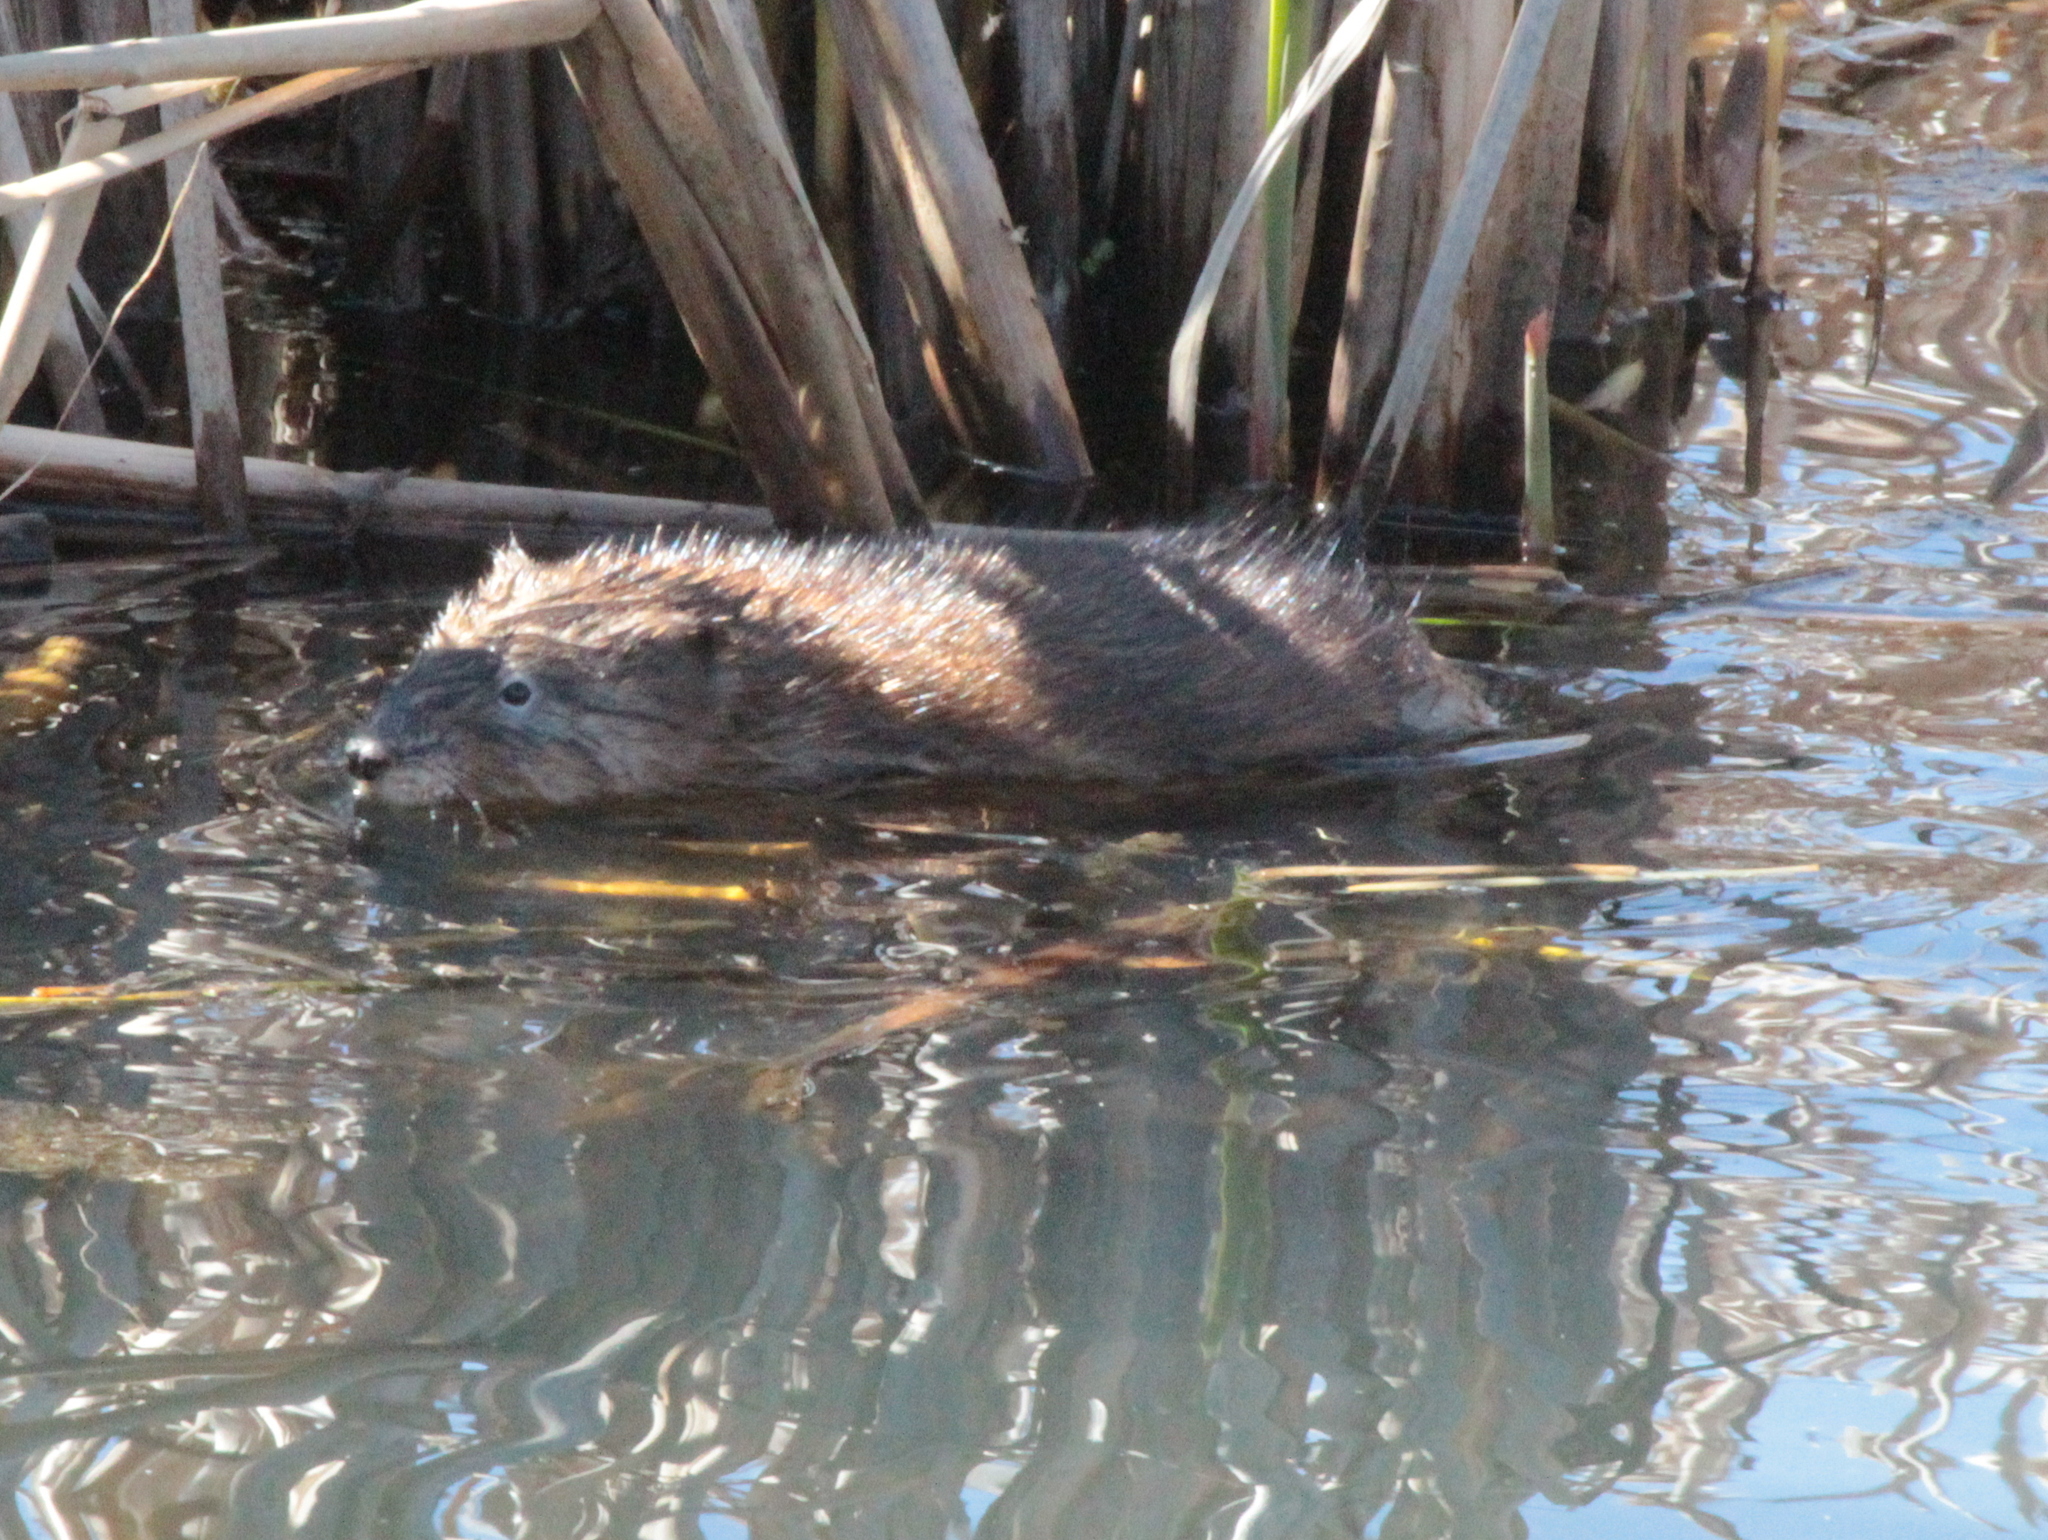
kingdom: Animalia
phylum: Chordata
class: Mammalia
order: Rodentia
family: Cricetidae
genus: Ondatra
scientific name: Ondatra zibethicus
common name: Muskrat
